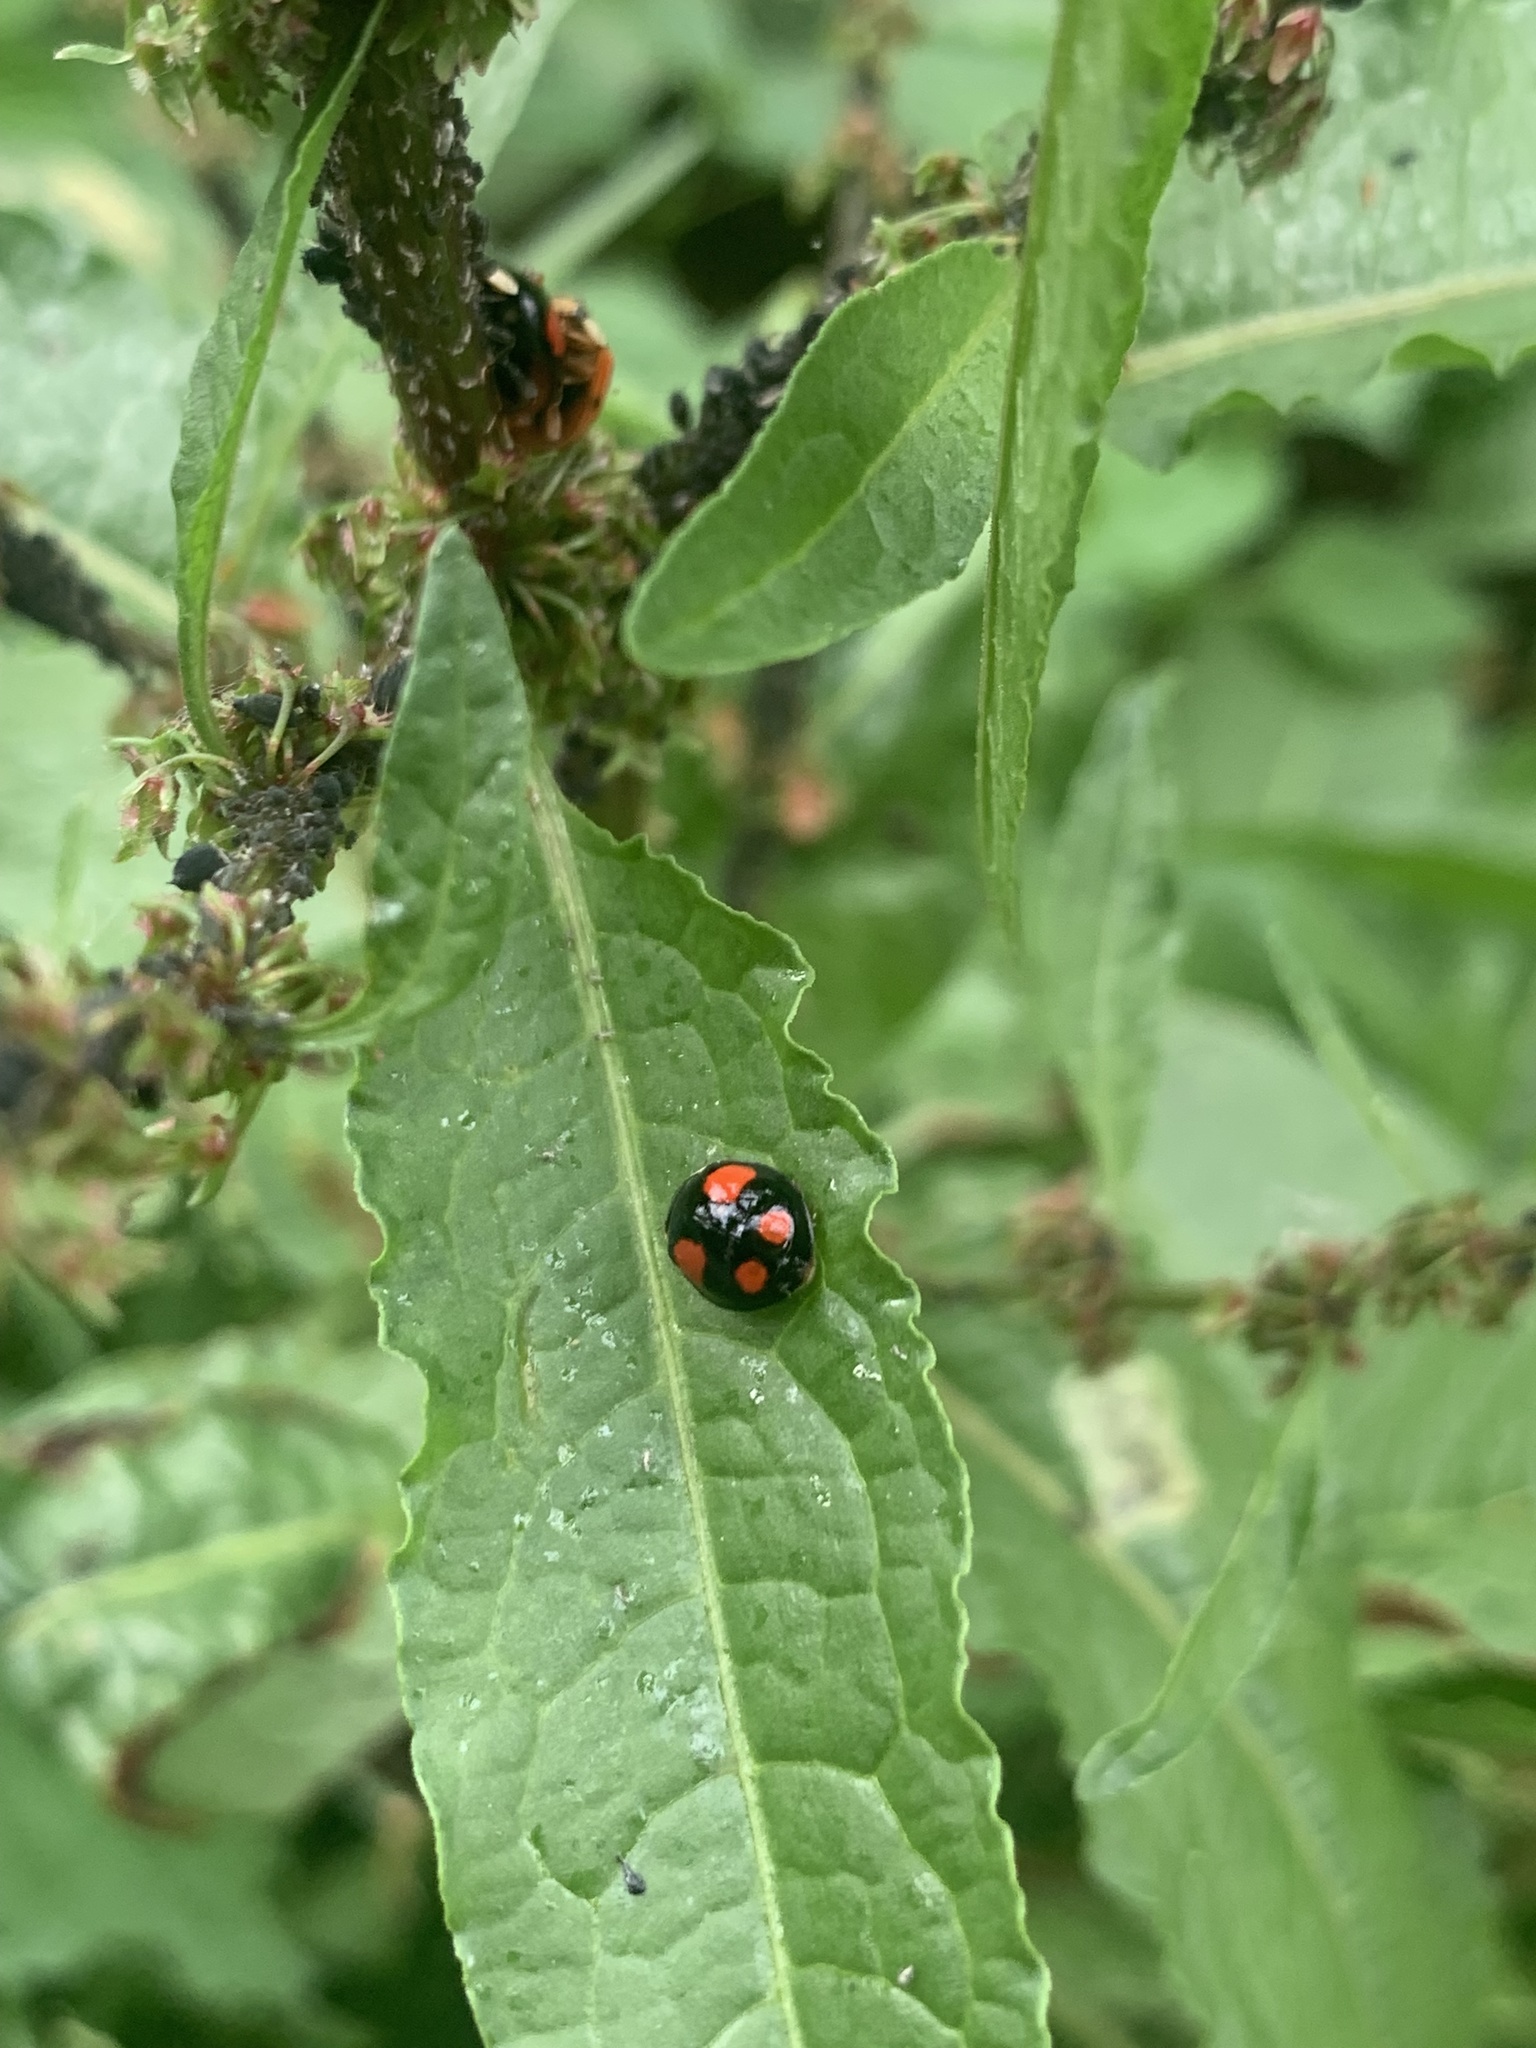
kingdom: Animalia
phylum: Arthropoda
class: Insecta
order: Coleoptera
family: Coccinellidae
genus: Harmonia
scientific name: Harmonia axyridis
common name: Harlequin ladybird
